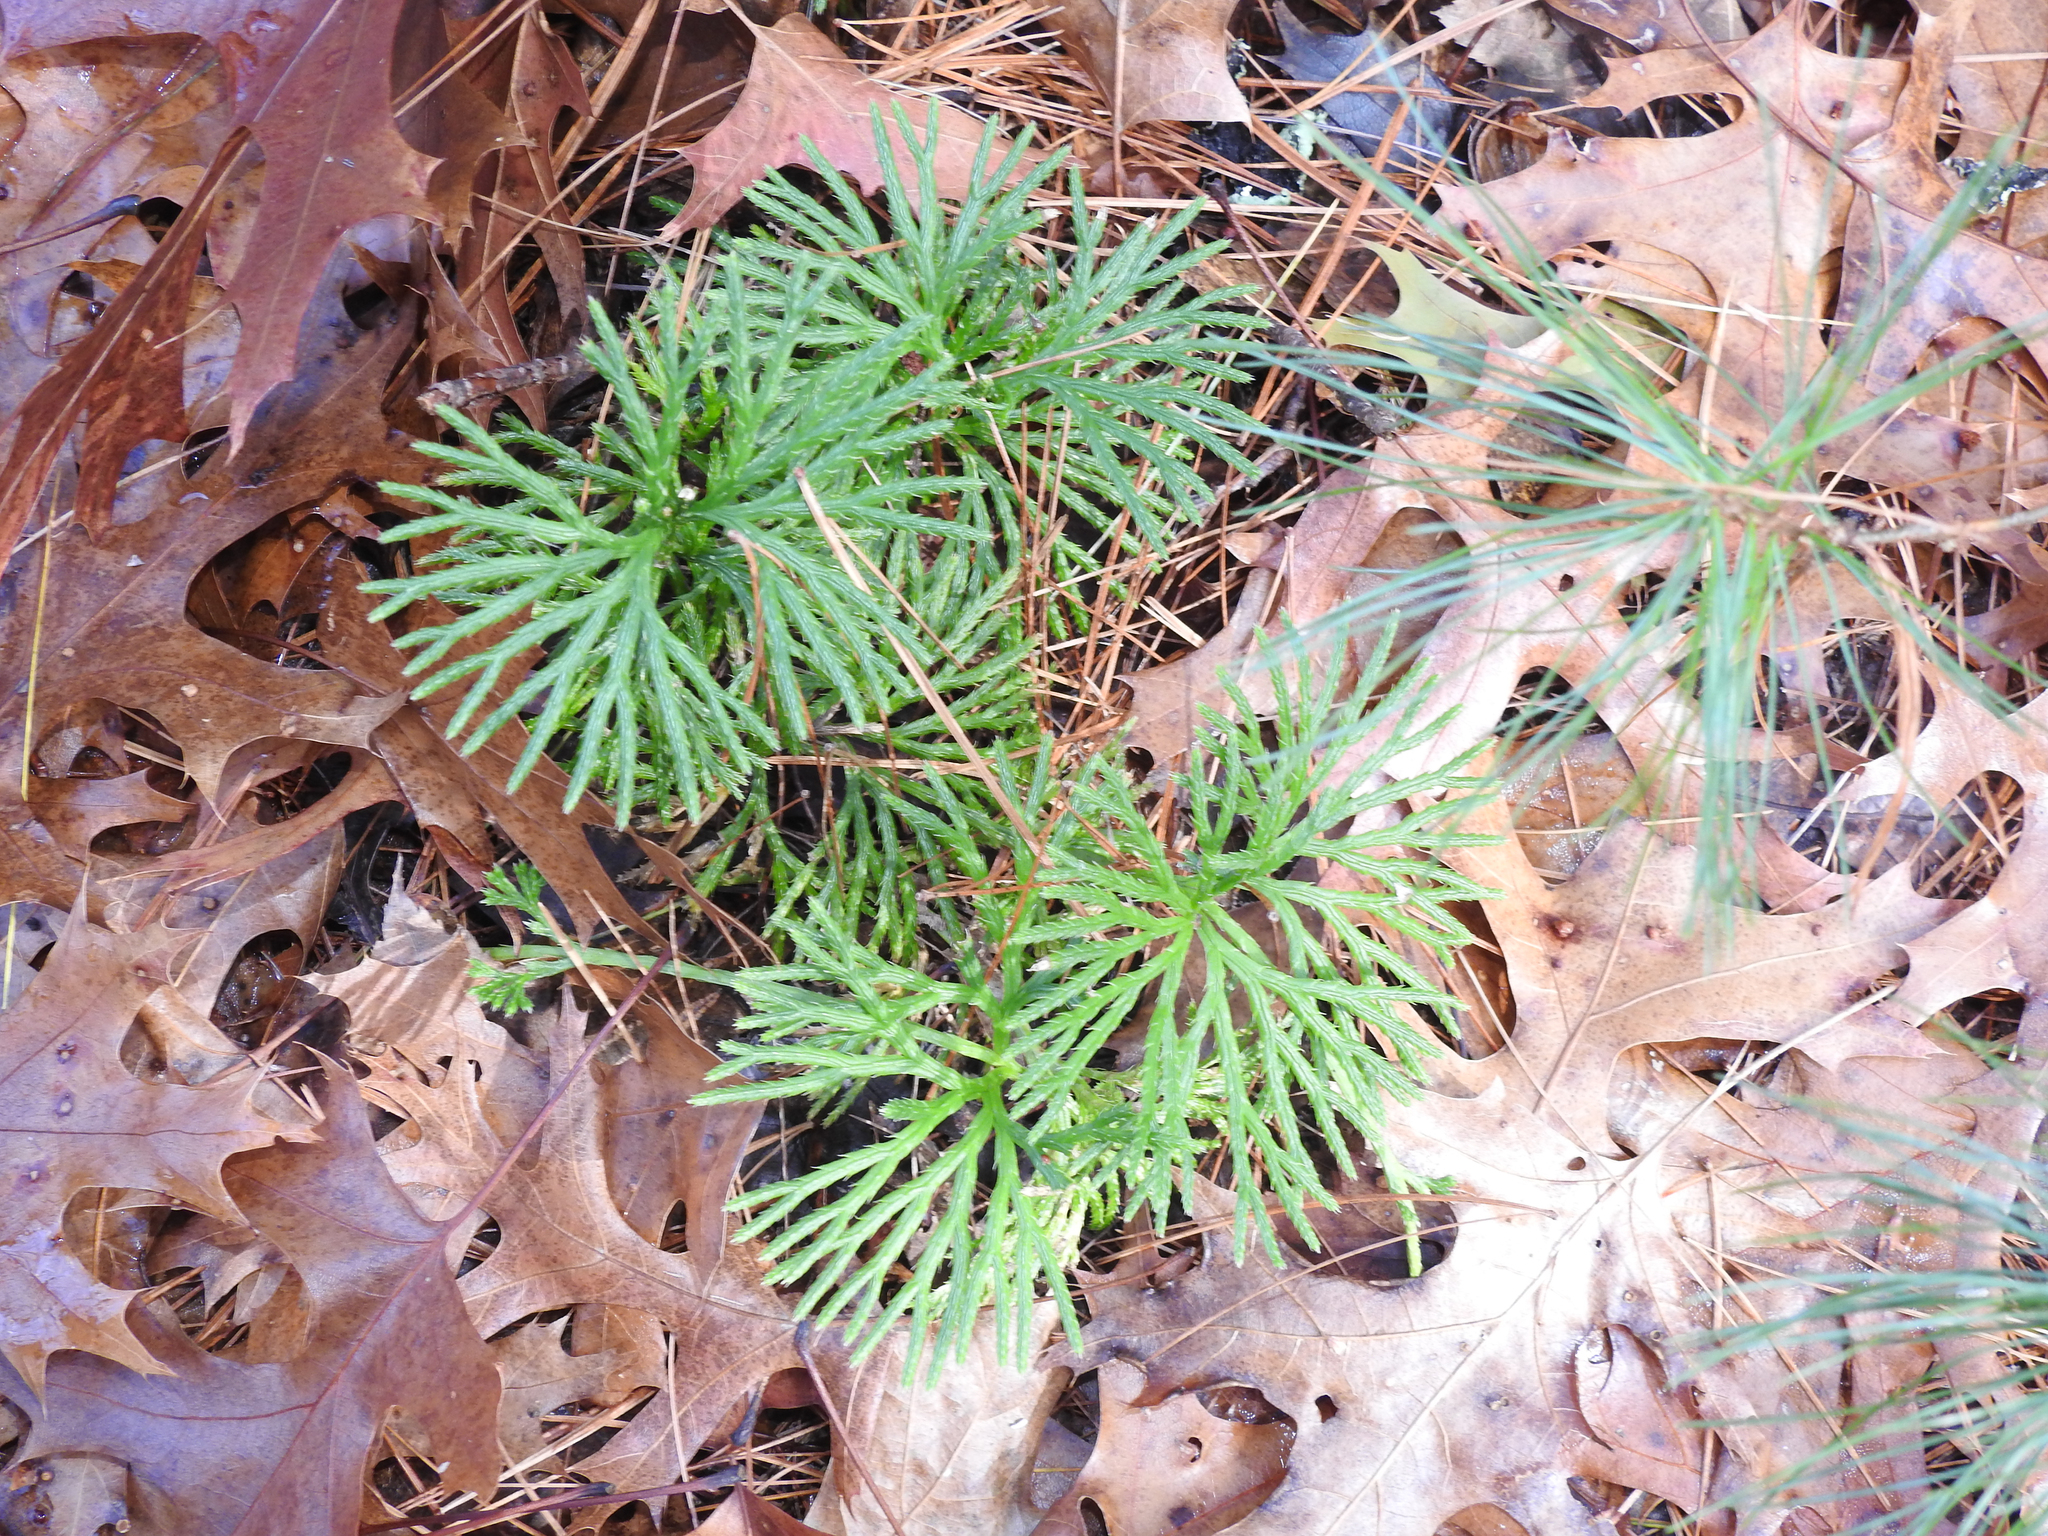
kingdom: Plantae
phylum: Tracheophyta
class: Lycopodiopsida
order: Lycopodiales
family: Lycopodiaceae
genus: Diphasiastrum
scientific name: Diphasiastrum digitatum
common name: Southern running-pine
